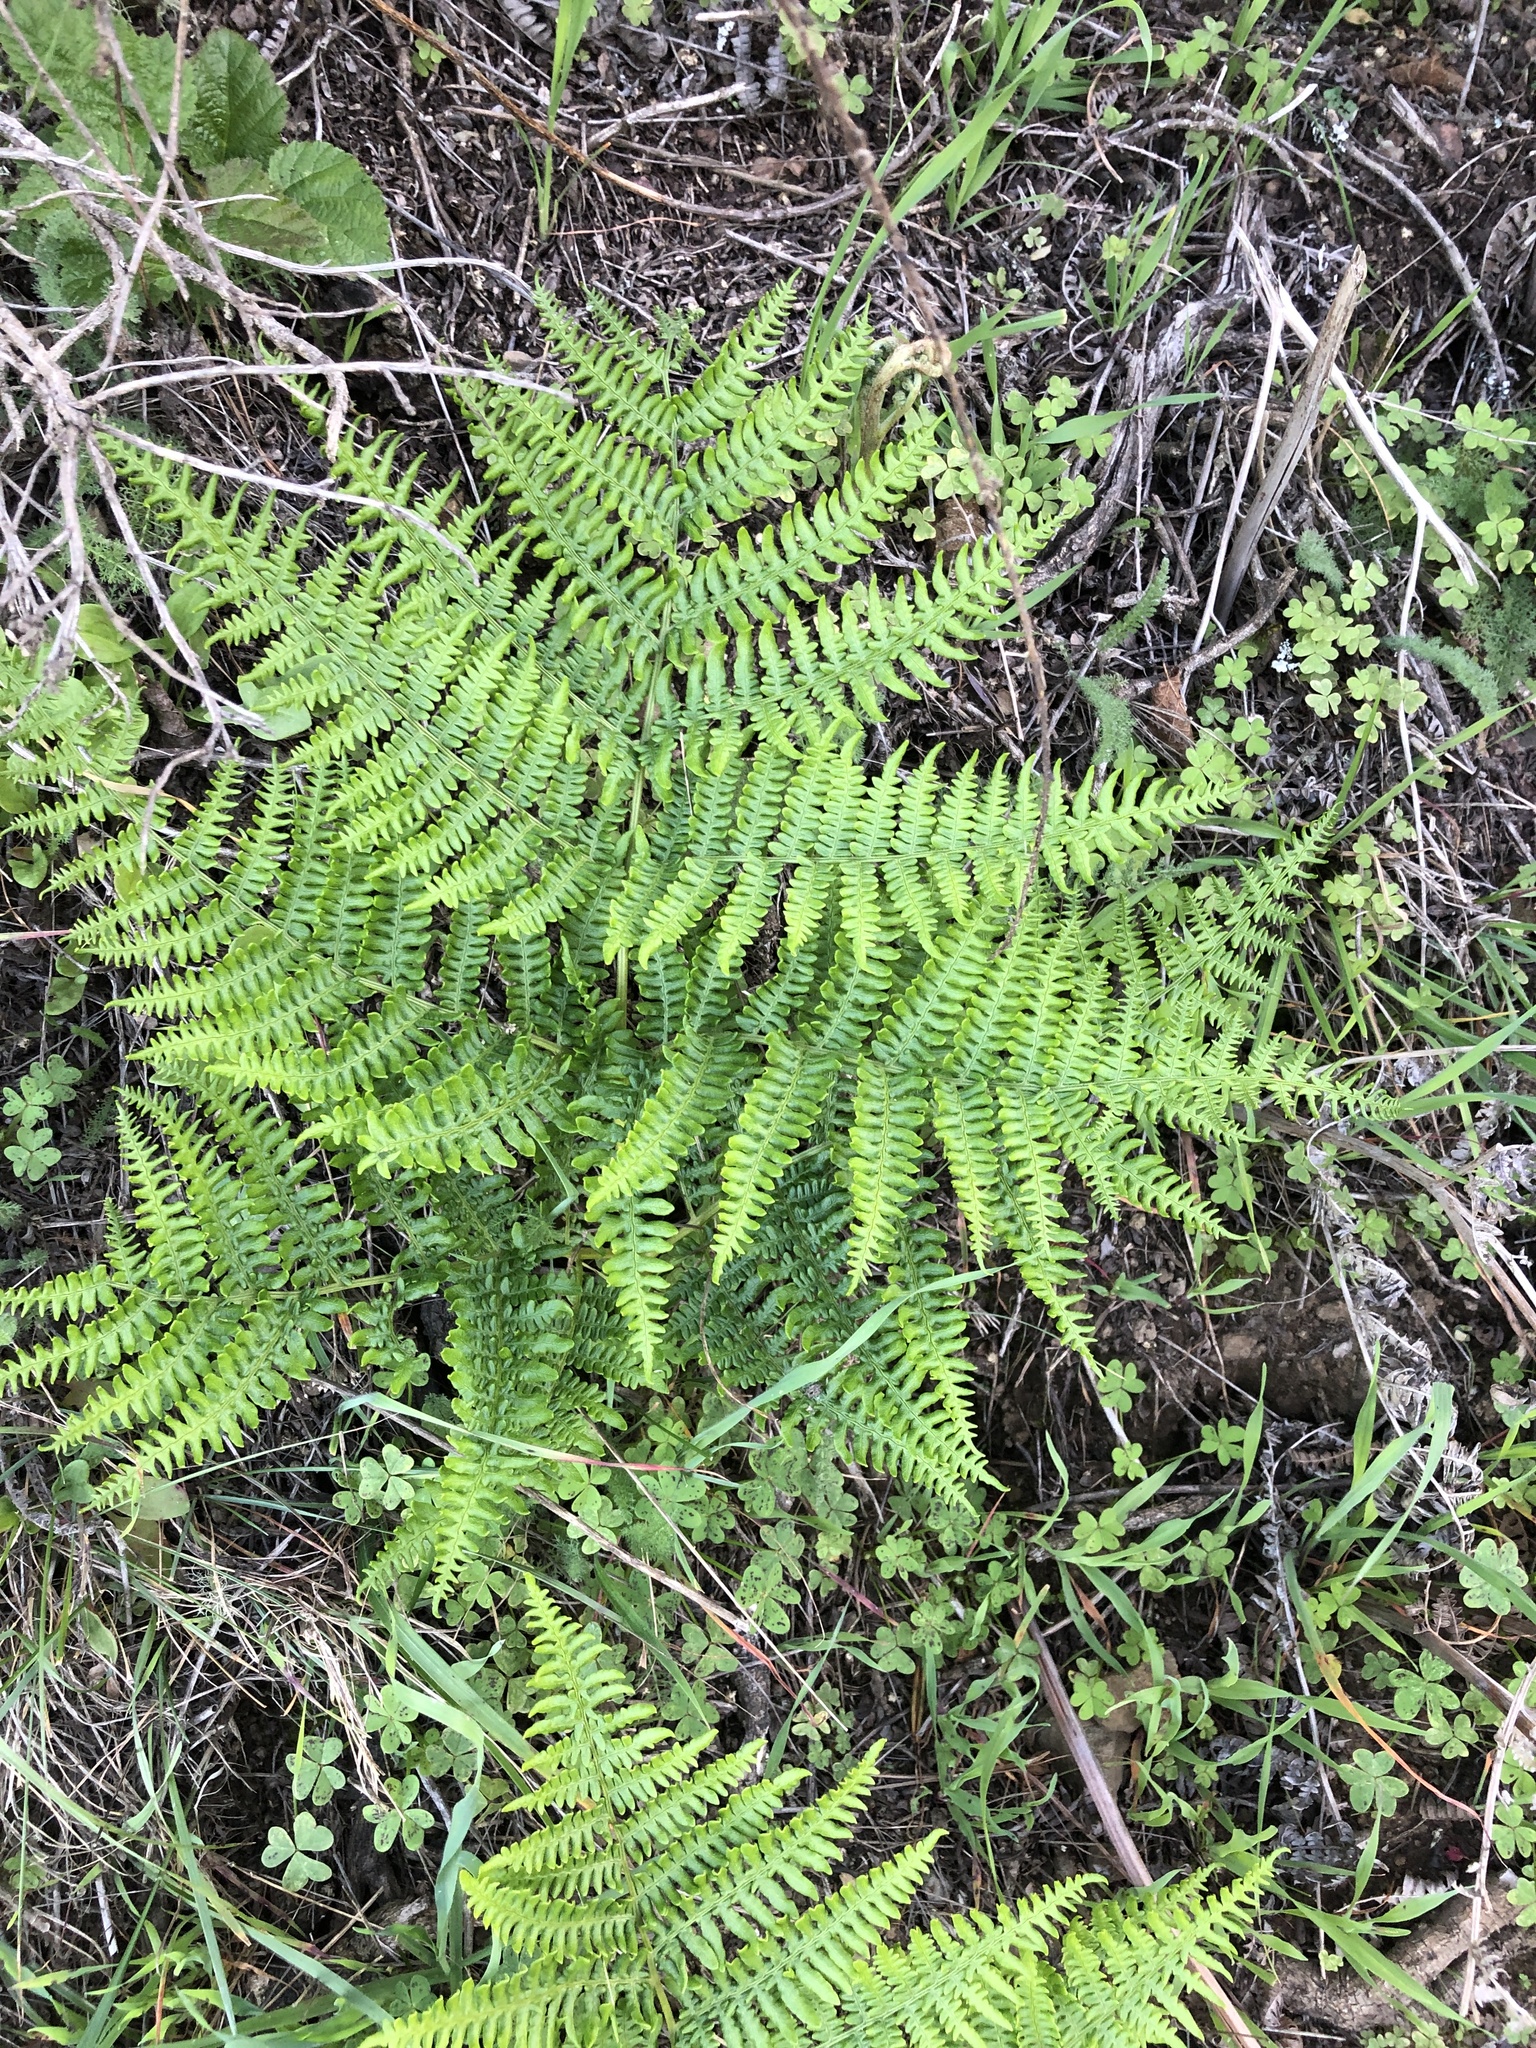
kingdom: Plantae
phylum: Tracheophyta
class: Polypodiopsida
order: Polypodiales
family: Dennstaedtiaceae
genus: Pteridium
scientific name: Pteridium aquilinum
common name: Bracken
